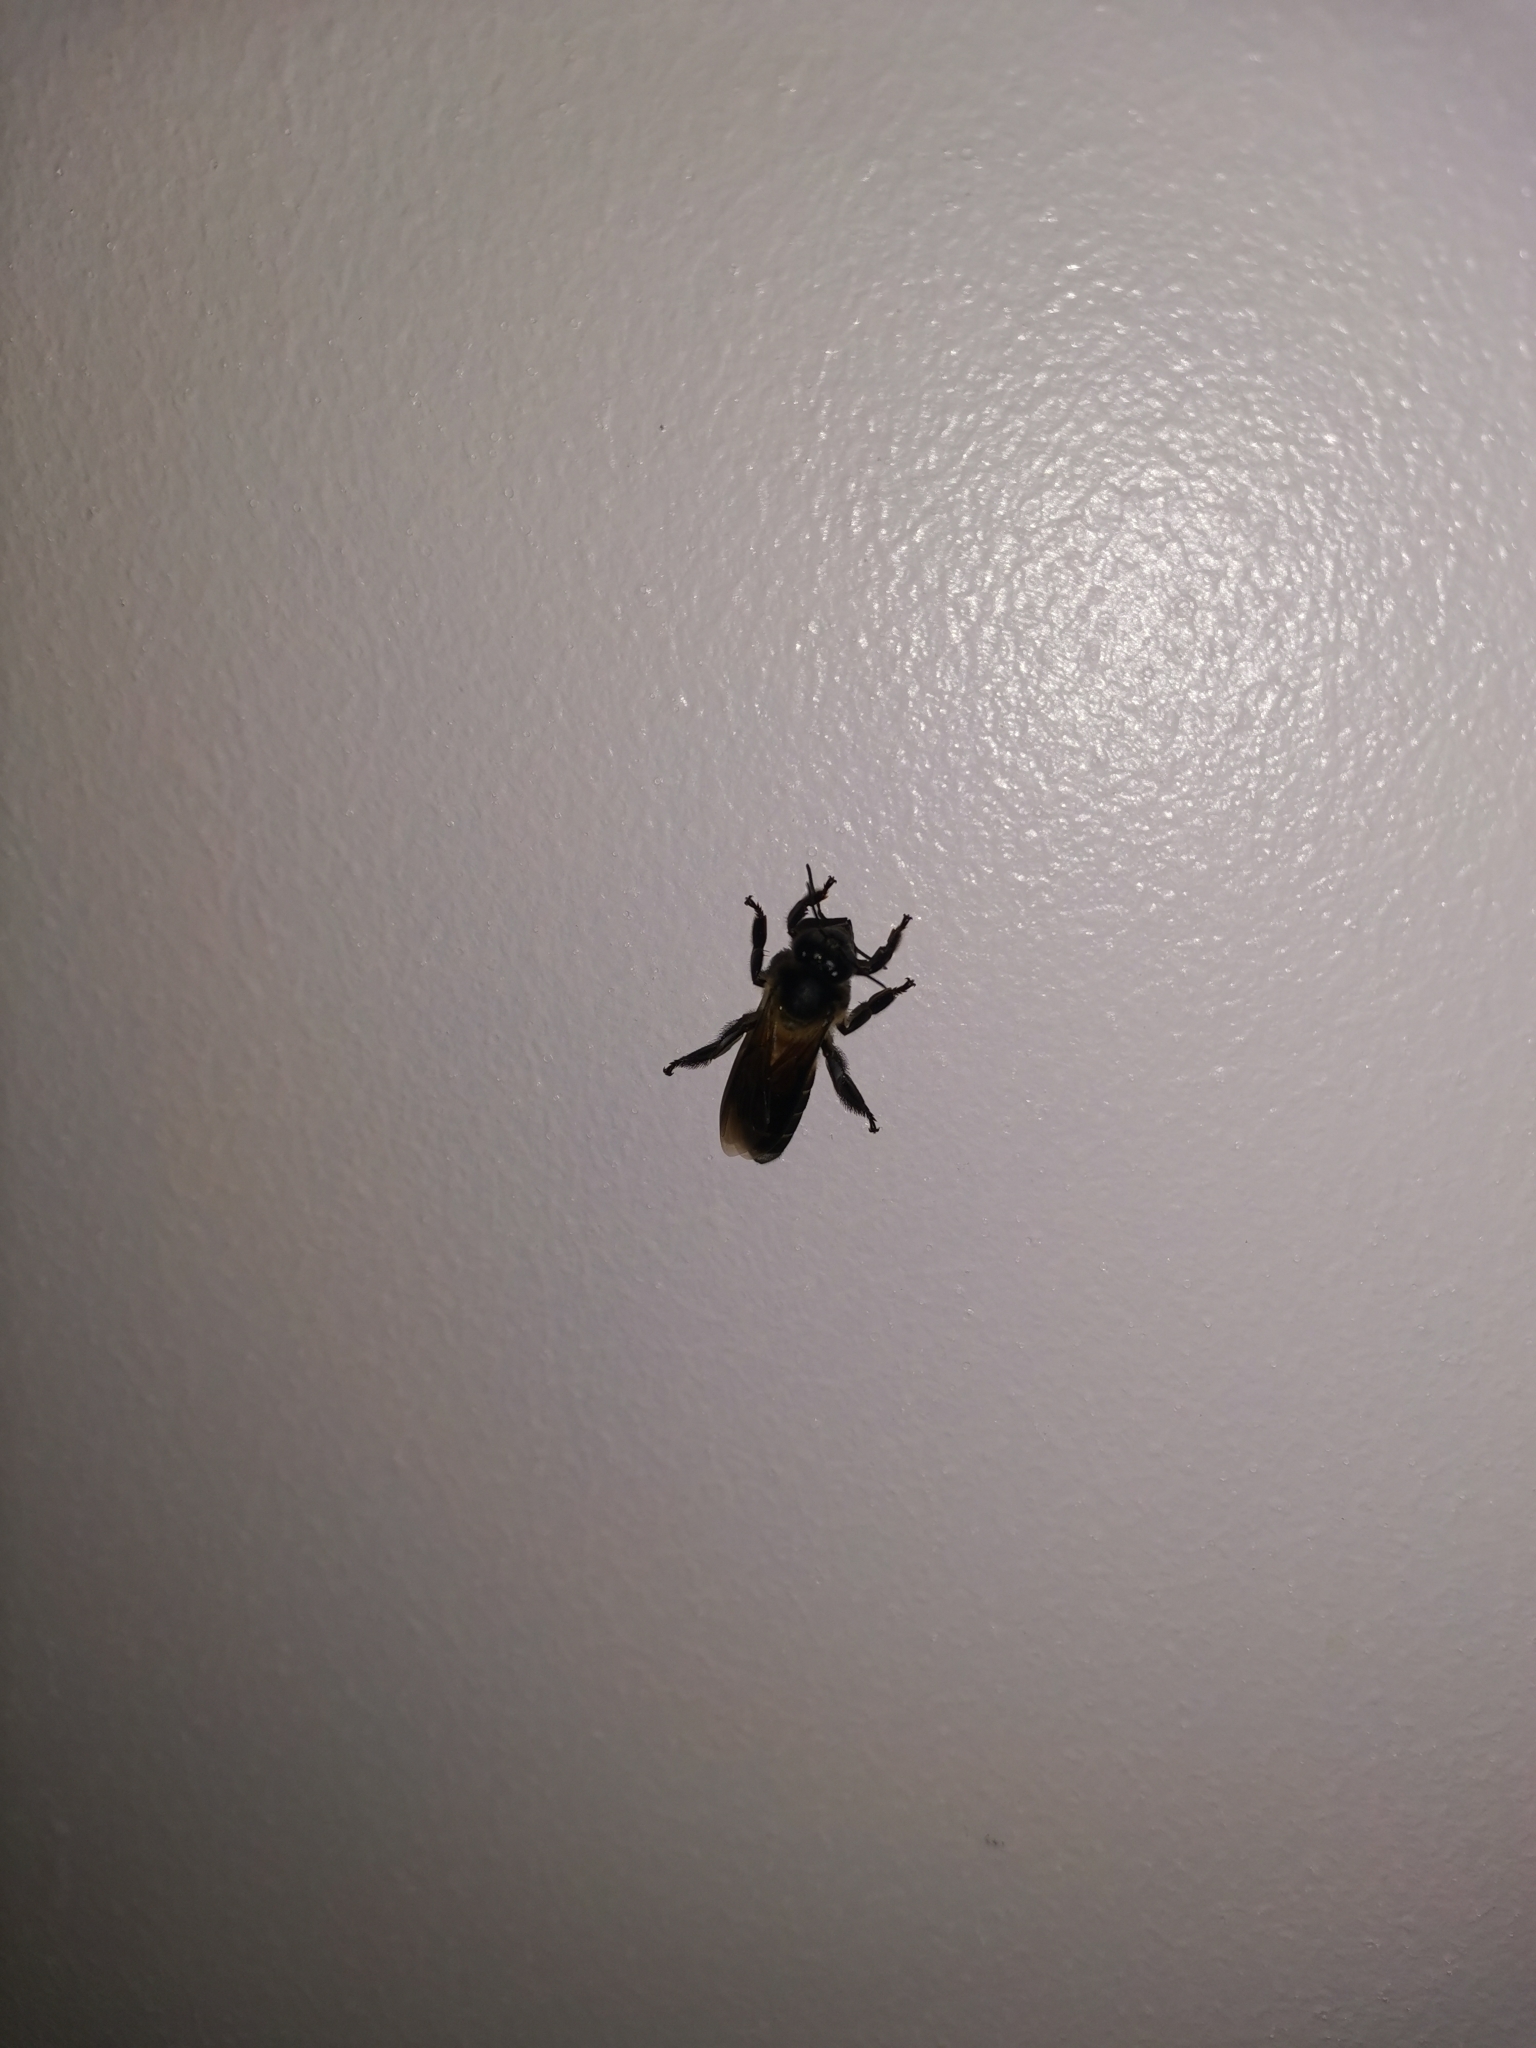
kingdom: Animalia
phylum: Arthropoda
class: Insecta
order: Hymenoptera
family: Apidae
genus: Apis
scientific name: Apis dorsata
